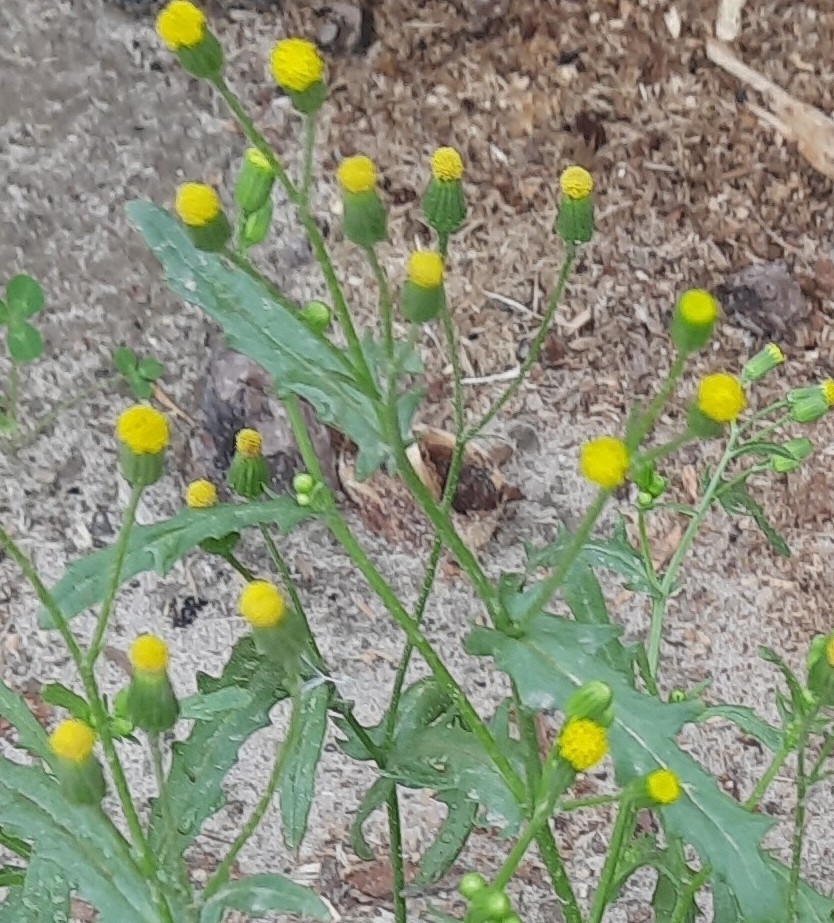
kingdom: Plantae
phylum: Tracheophyta
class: Magnoliopsida
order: Asterales
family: Asteraceae
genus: Senecio
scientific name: Senecio dubitabilis
